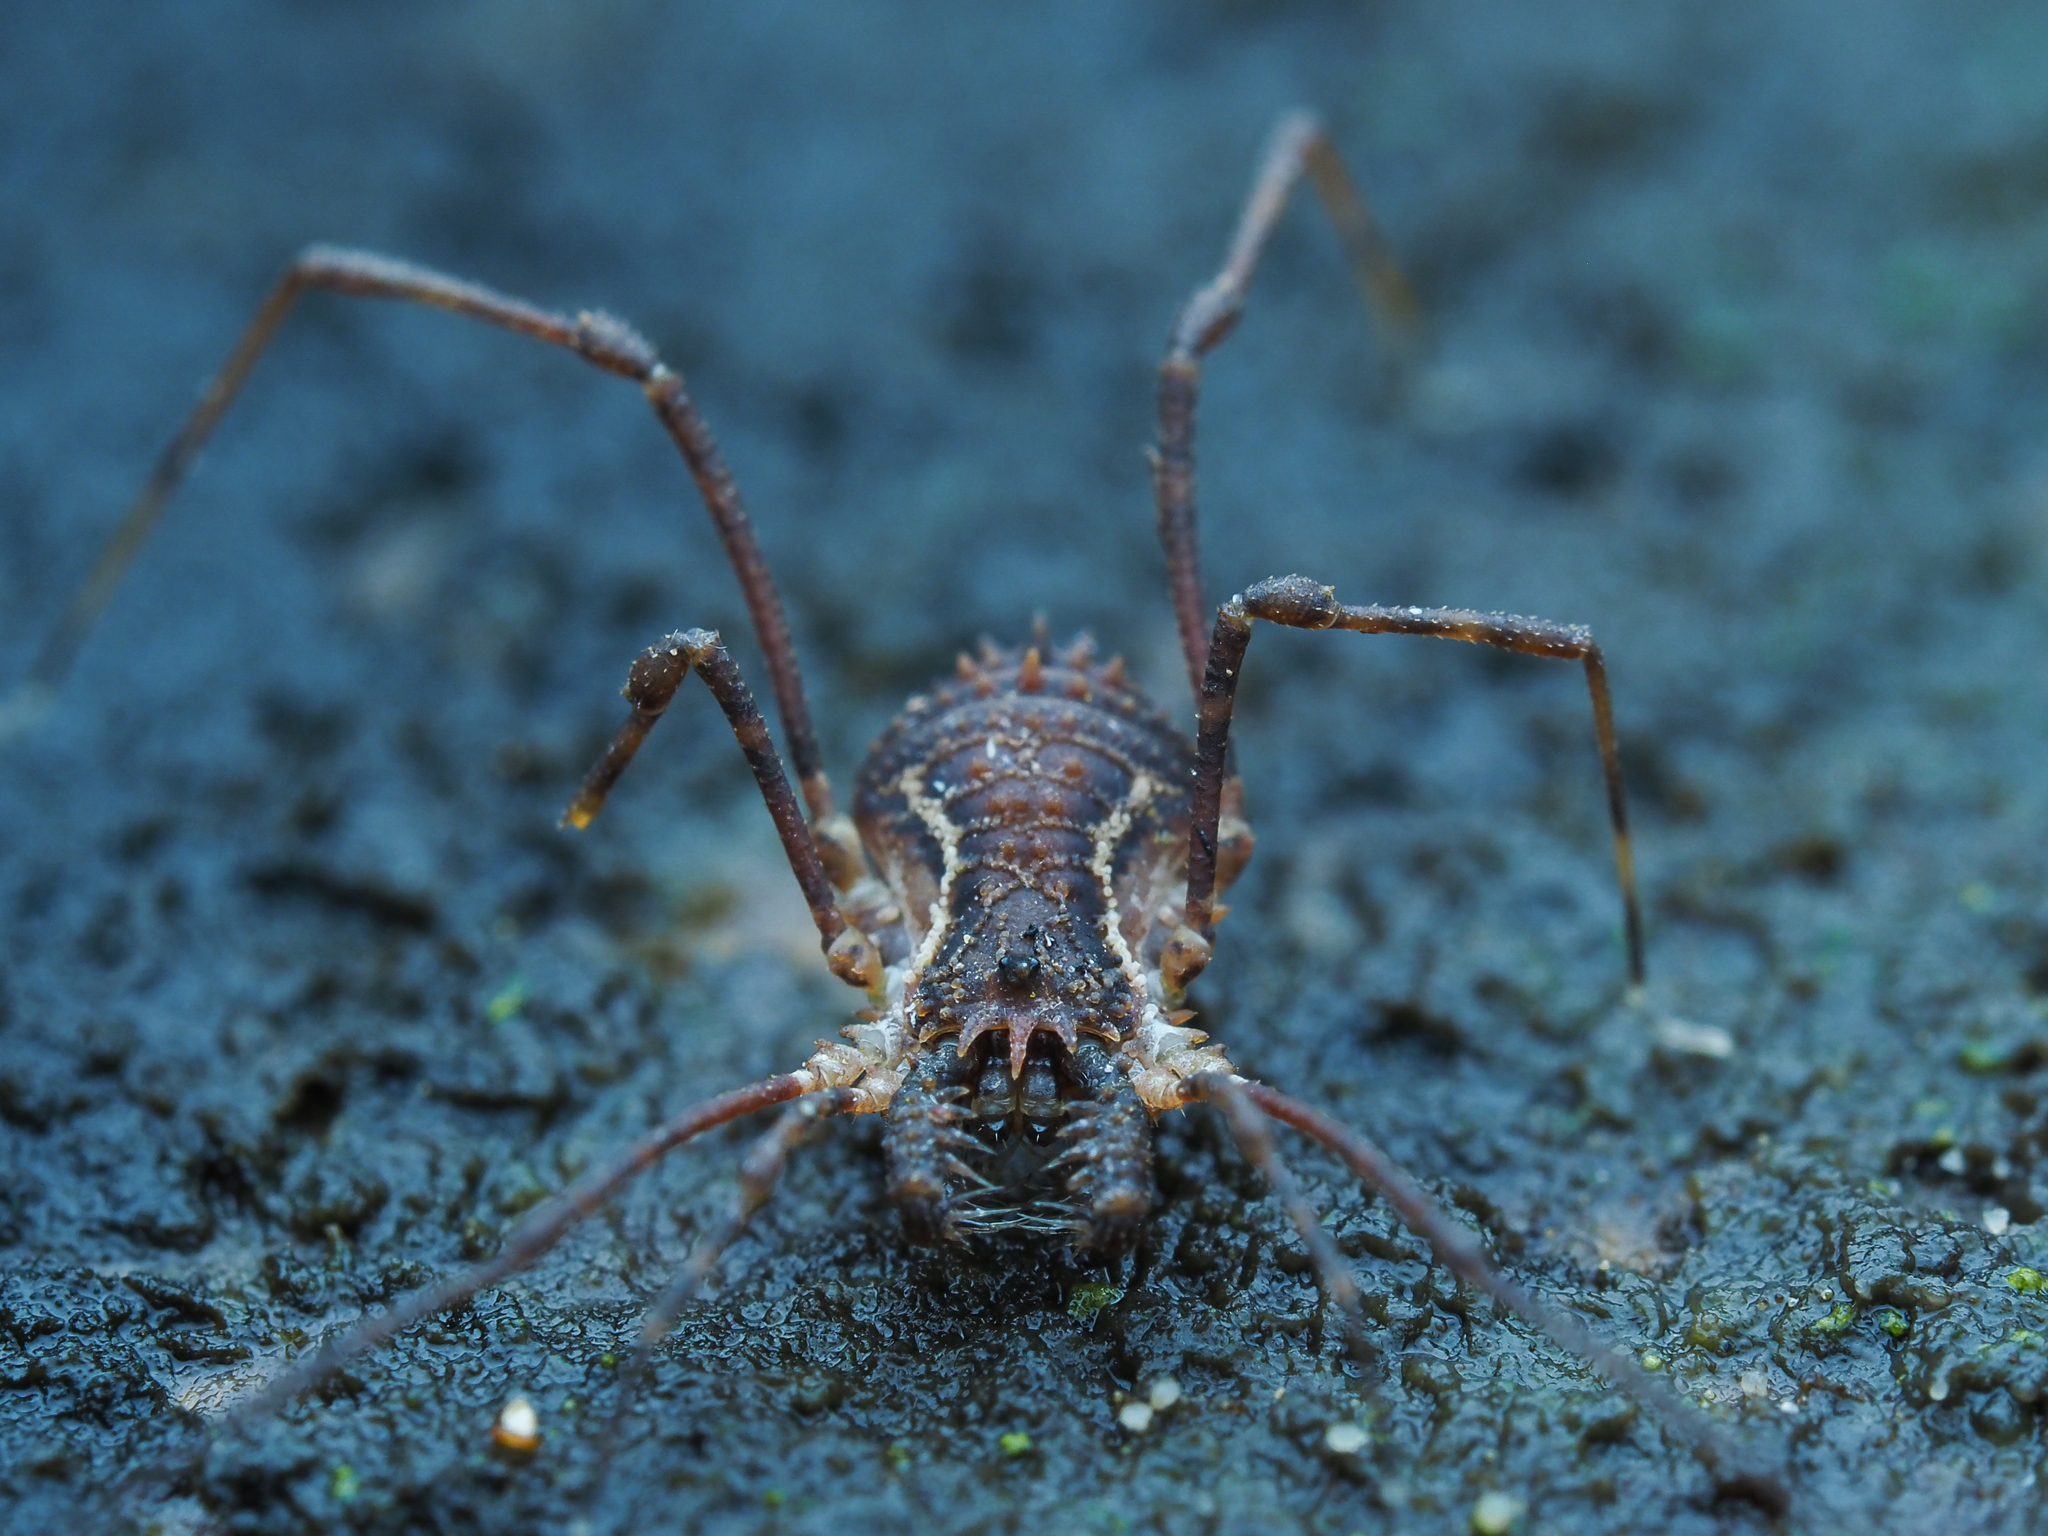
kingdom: Animalia
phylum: Arthropoda
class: Arachnida
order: Opiliones
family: Triaenonychidae
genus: Algidia
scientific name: Algidia chiltoni
